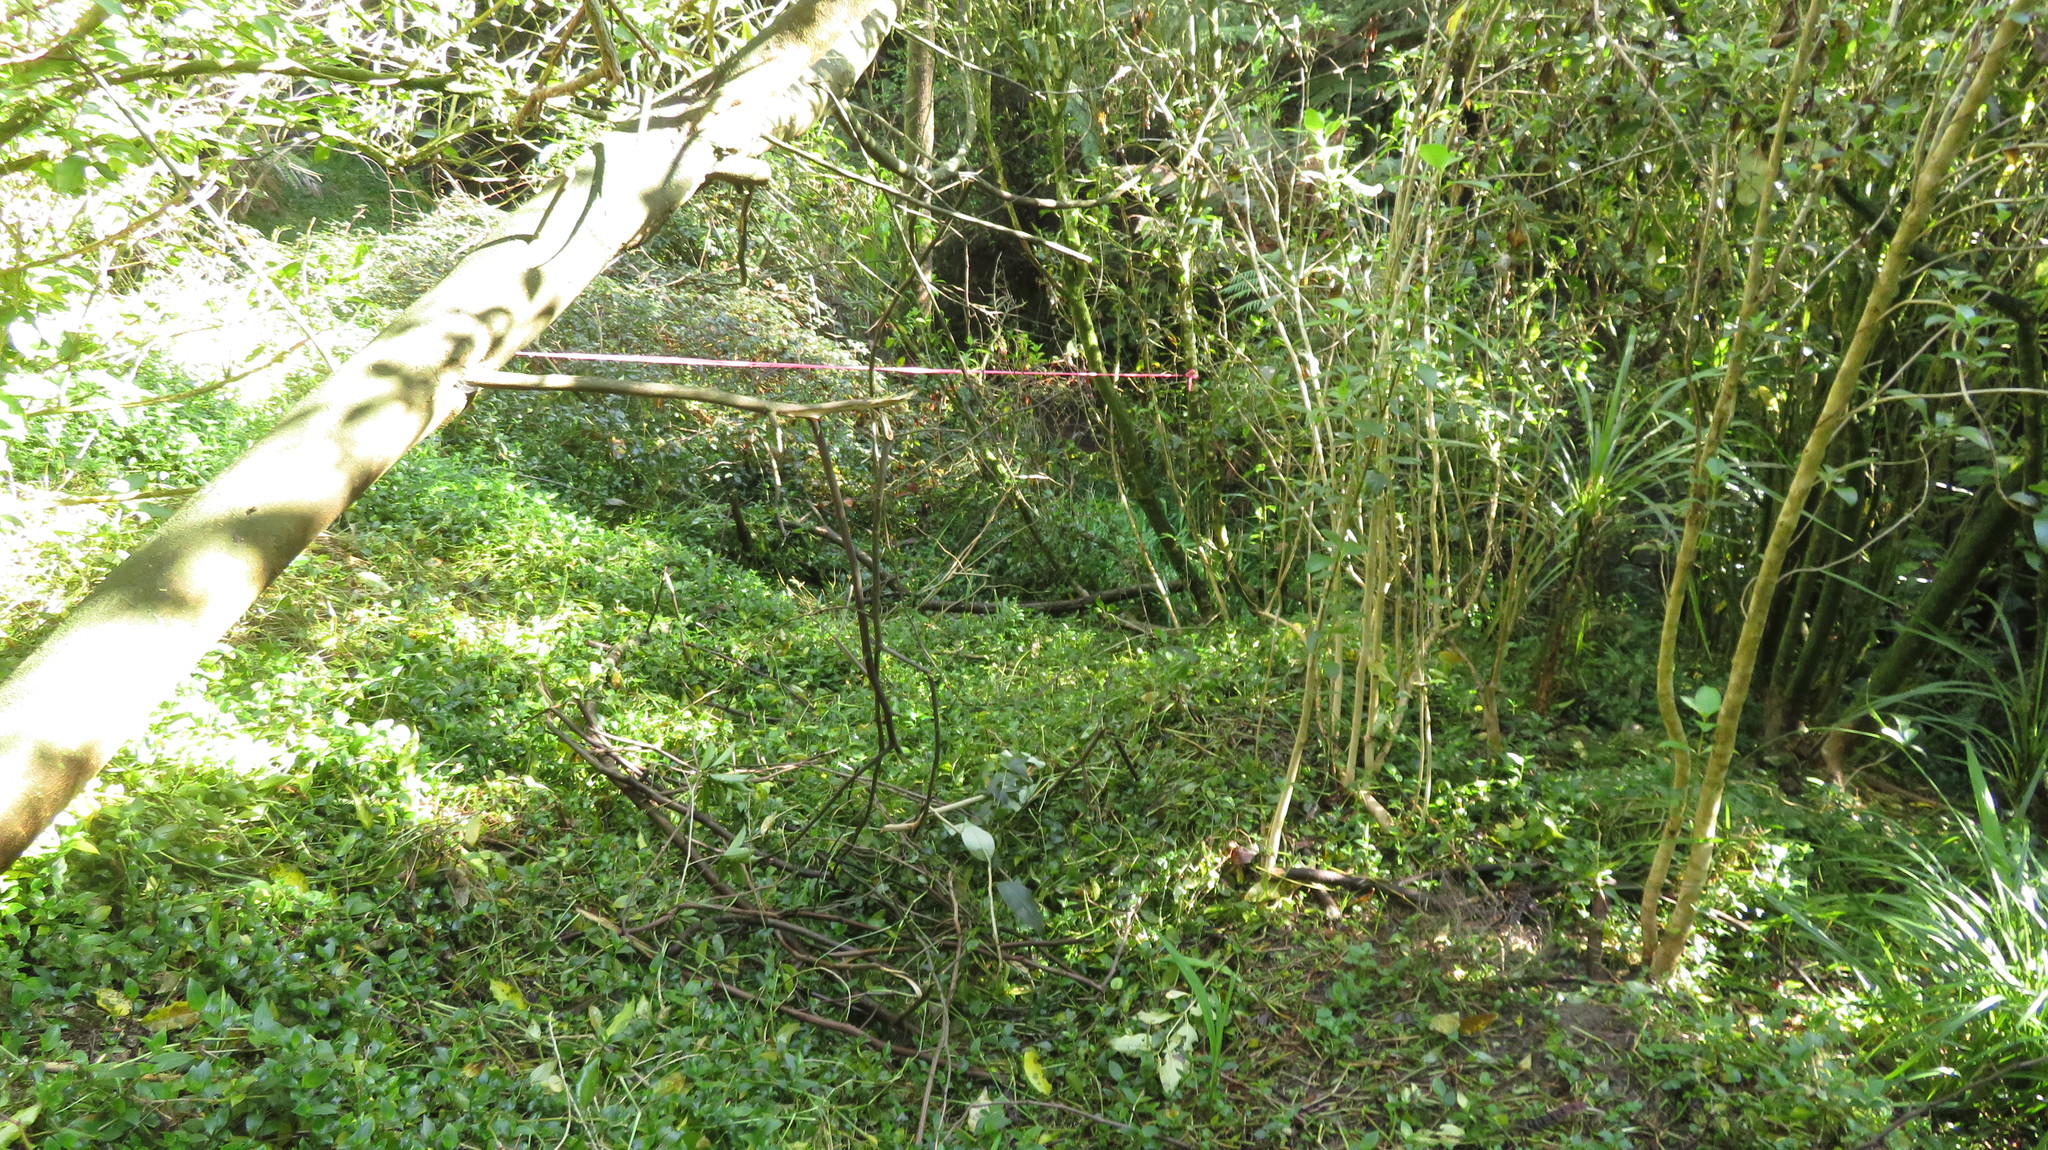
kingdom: Plantae
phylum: Tracheophyta
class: Liliopsida
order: Commelinales
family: Commelinaceae
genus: Tradescantia
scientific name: Tradescantia fluminensis
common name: Wandering-jew
